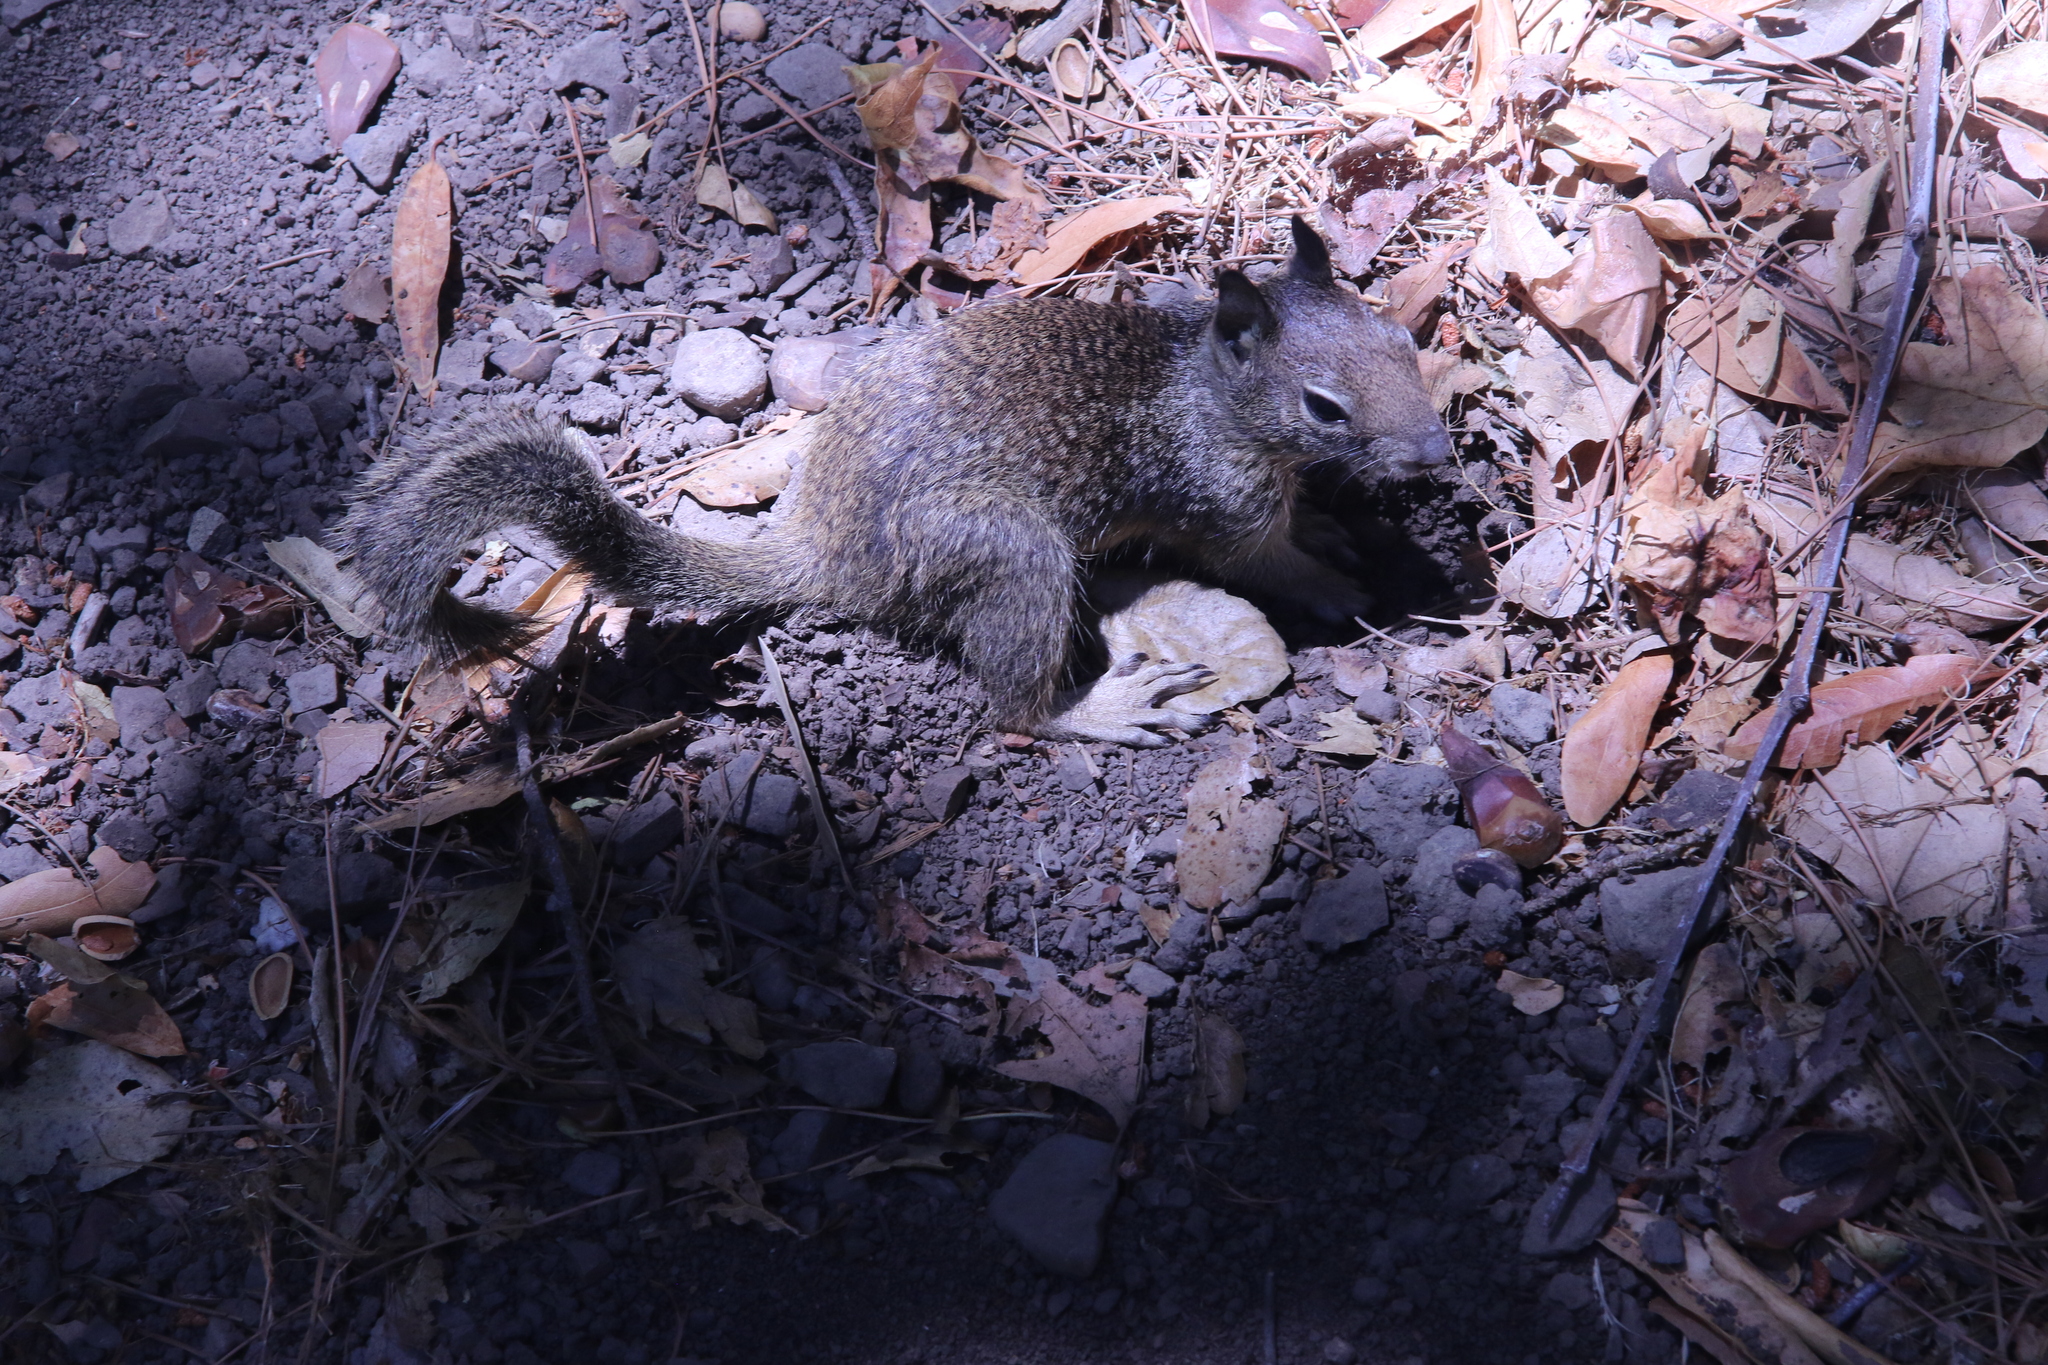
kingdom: Animalia
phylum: Chordata
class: Mammalia
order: Rodentia
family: Sciuridae
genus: Otospermophilus
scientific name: Otospermophilus beecheyi
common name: California ground squirrel
